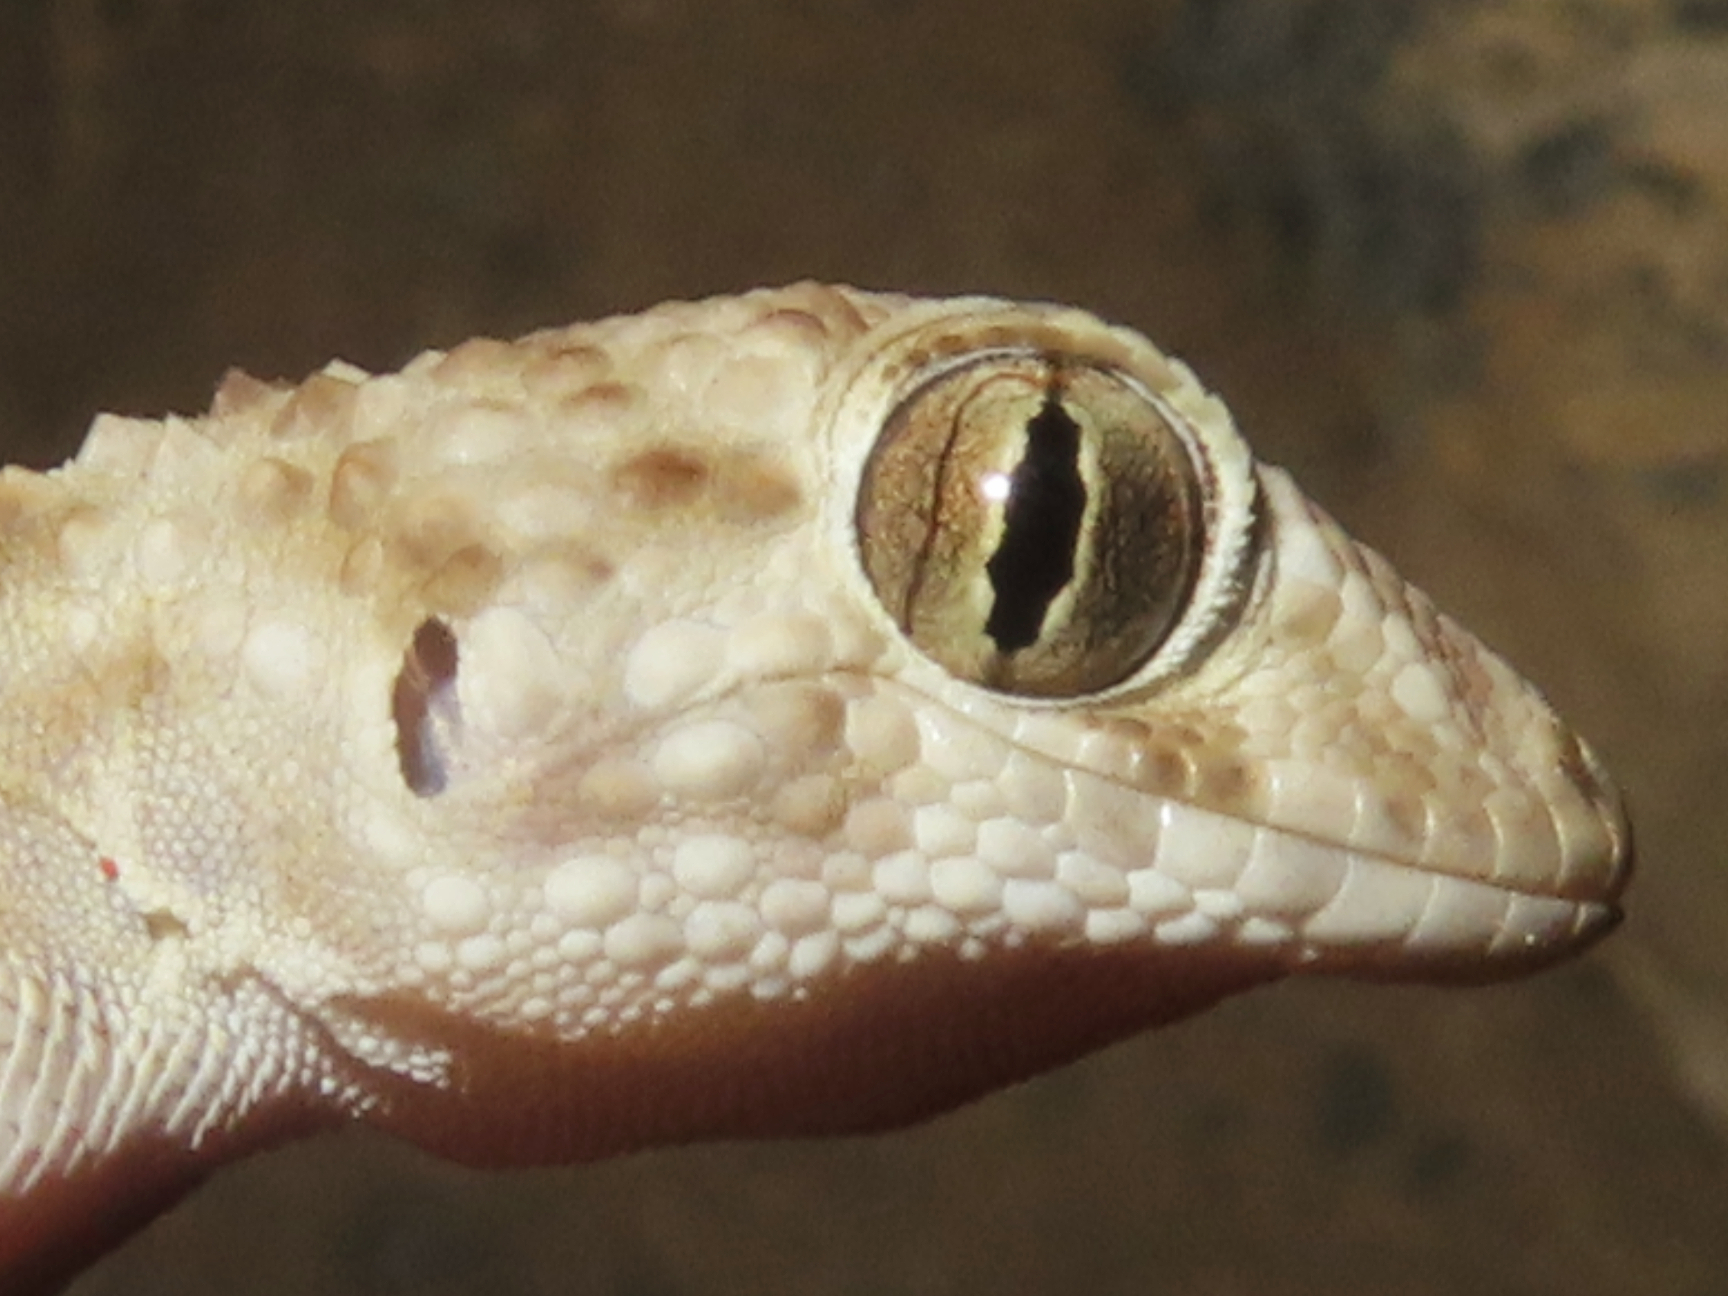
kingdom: Animalia
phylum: Chordata
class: Squamata
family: Gekkonidae
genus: Tenuidactylus
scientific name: Tenuidactylus caspius
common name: Caspian bent-toed gecko
